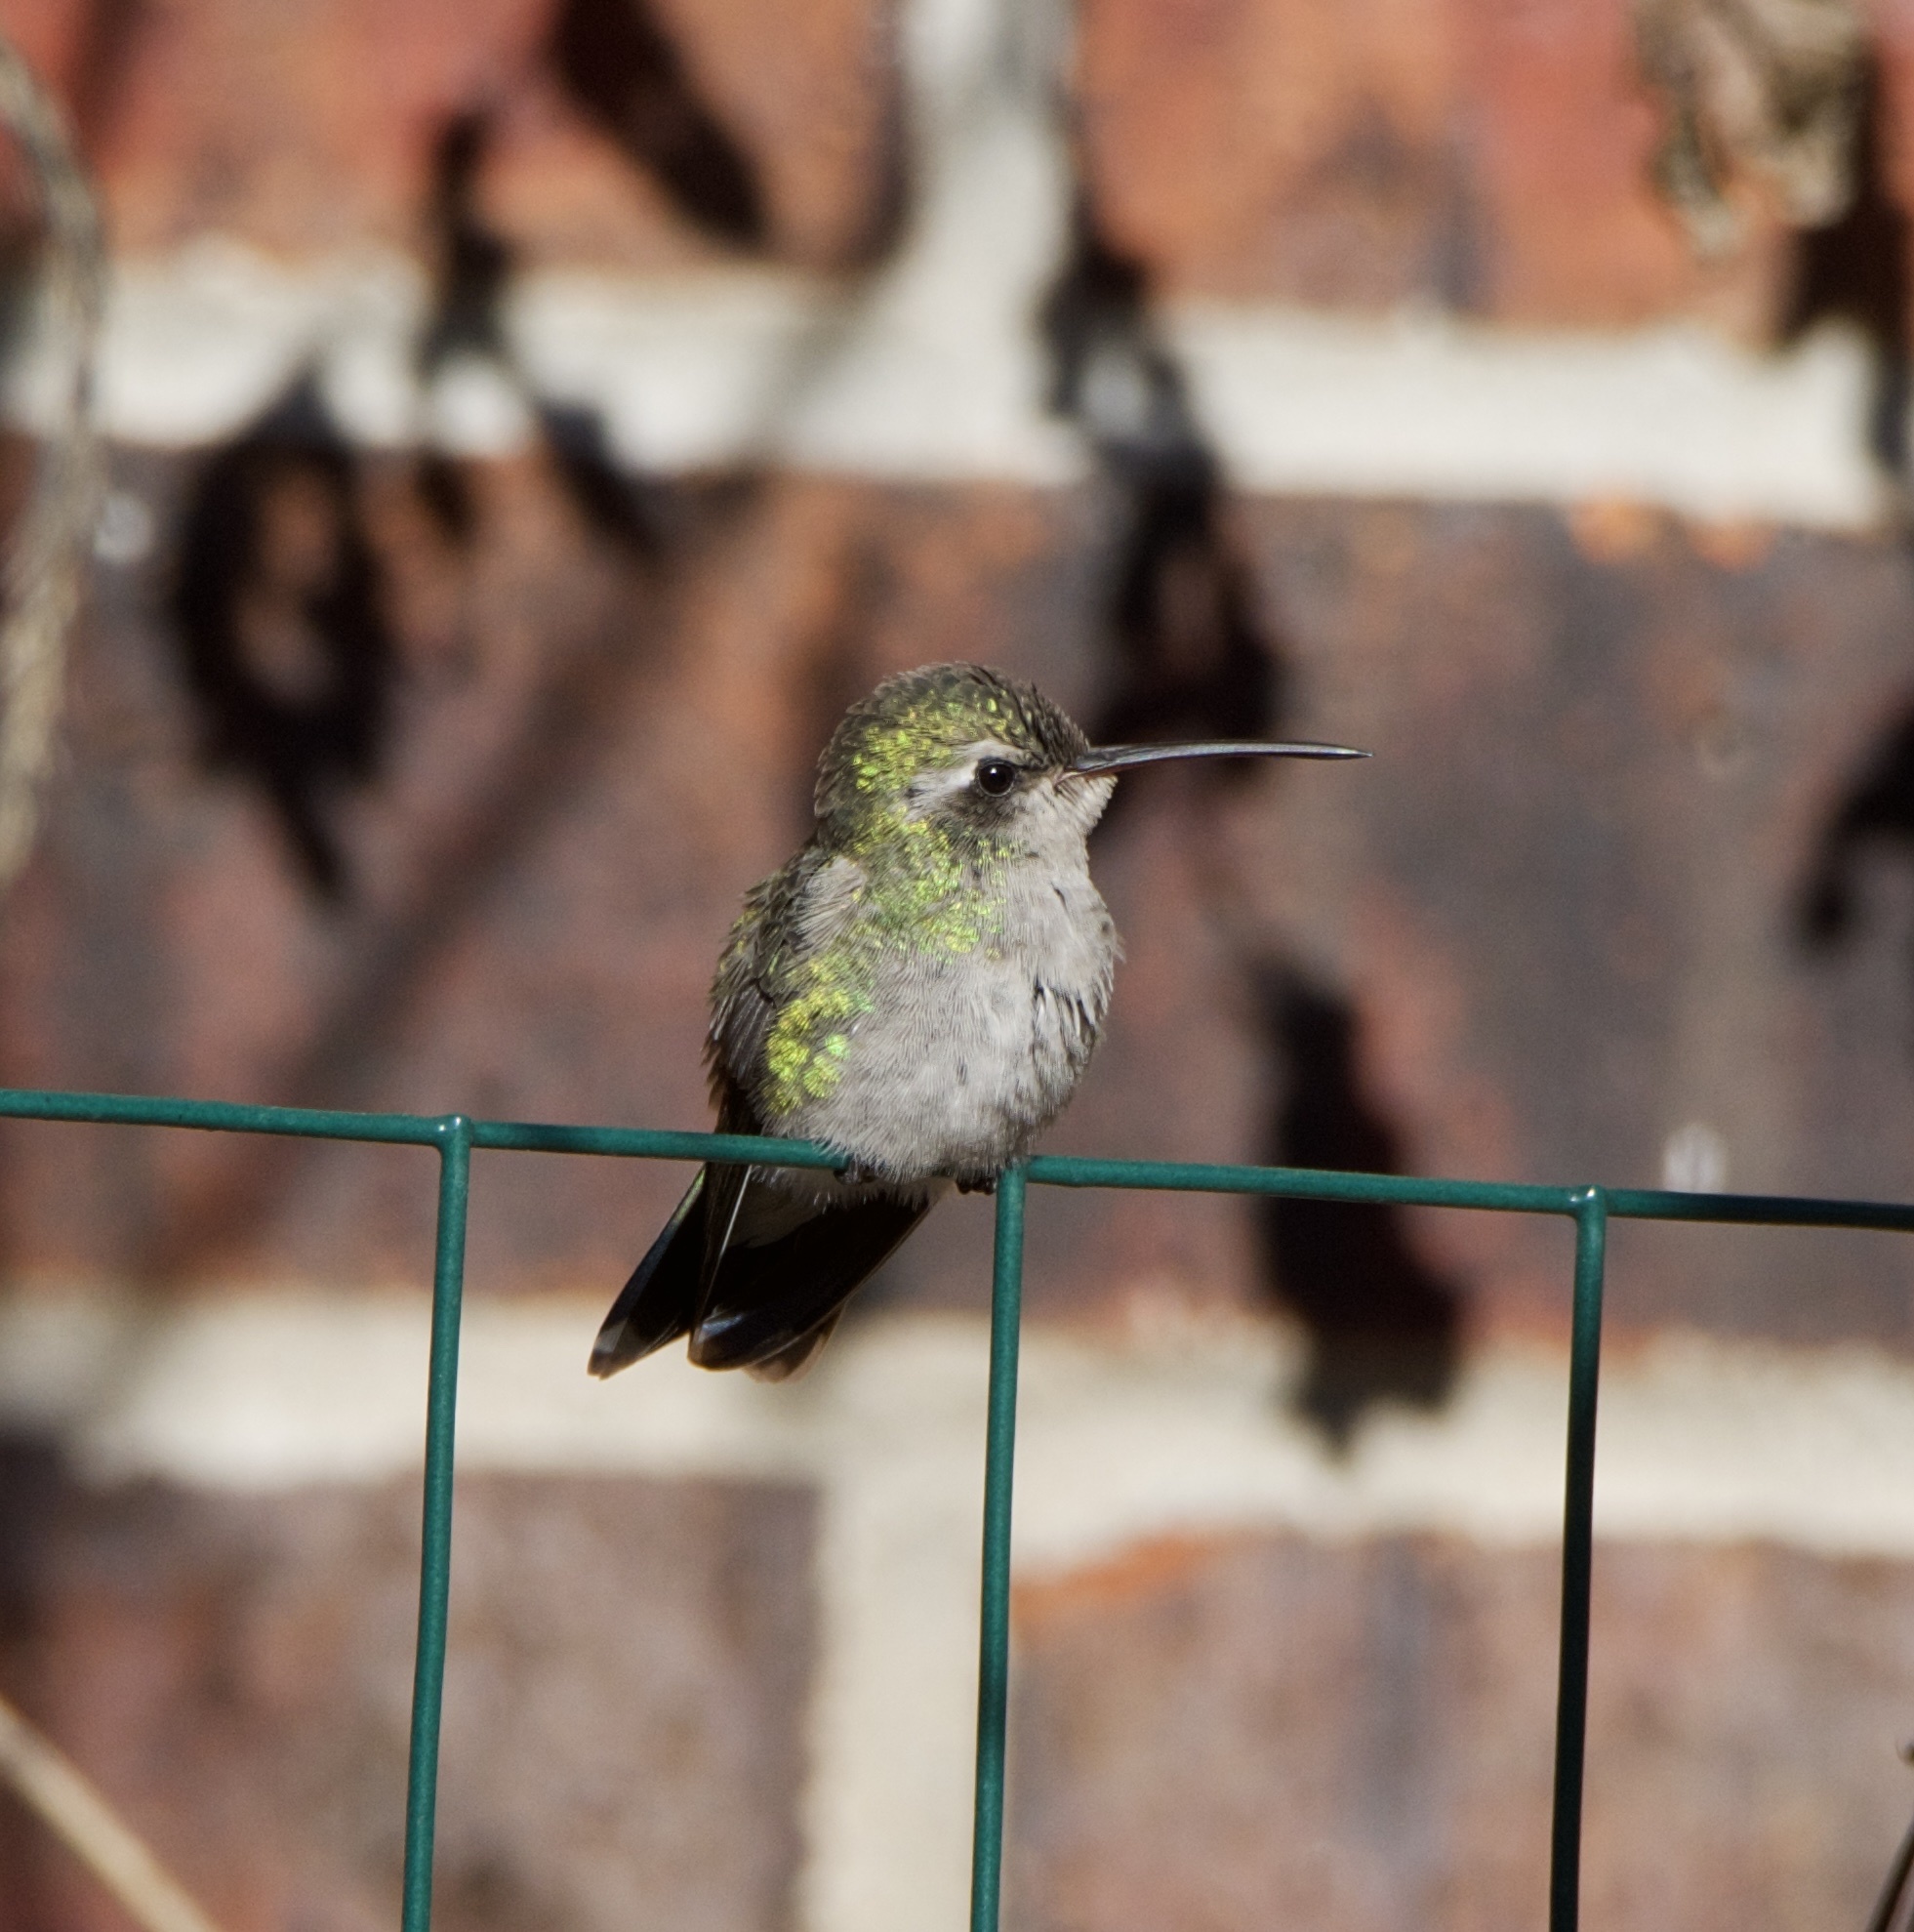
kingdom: Animalia
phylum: Chordata
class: Aves
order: Apodiformes
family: Trochilidae
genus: Cynanthus
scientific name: Cynanthus latirostris
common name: Broad-billed hummingbird
